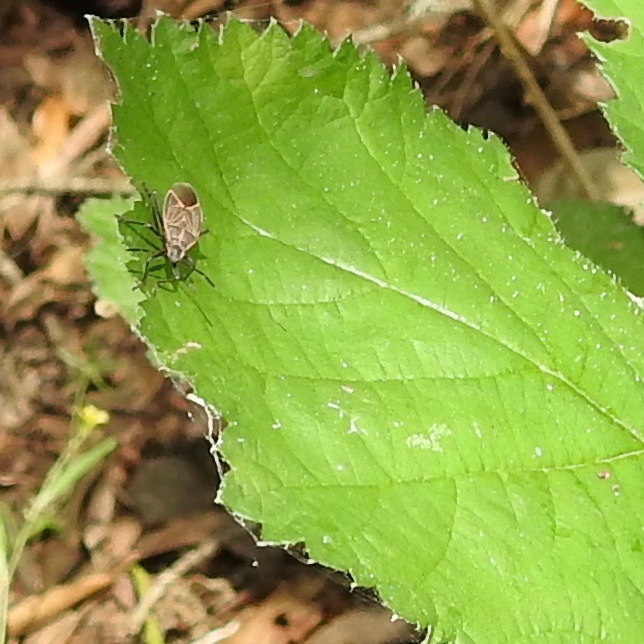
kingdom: Animalia
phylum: Arthropoda
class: Insecta
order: Hemiptera
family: Rhopalidae
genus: Boisea
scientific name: Boisea rubrolineata
